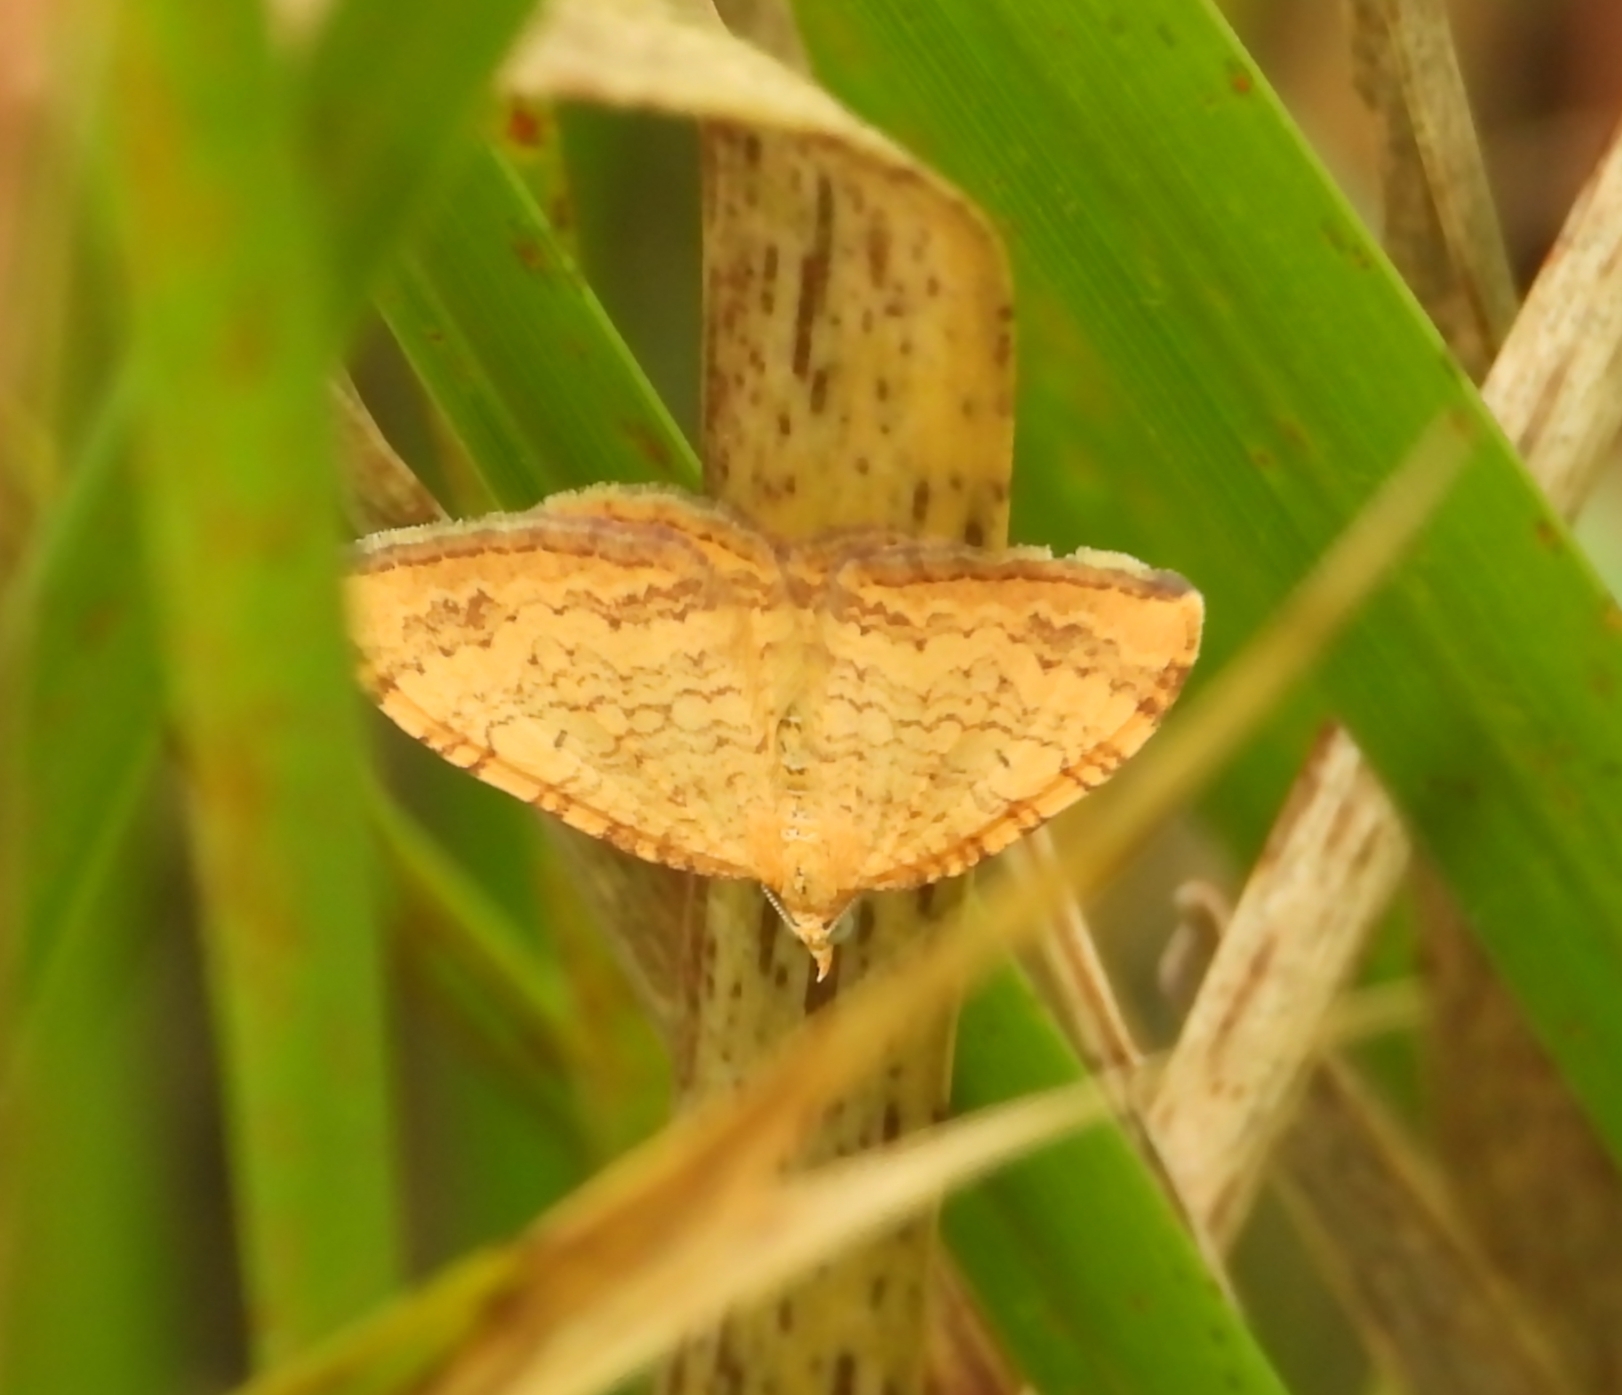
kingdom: Animalia
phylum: Arthropoda
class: Insecta
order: Lepidoptera
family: Geometridae
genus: Chrysolarentia
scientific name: Chrysolarentia
